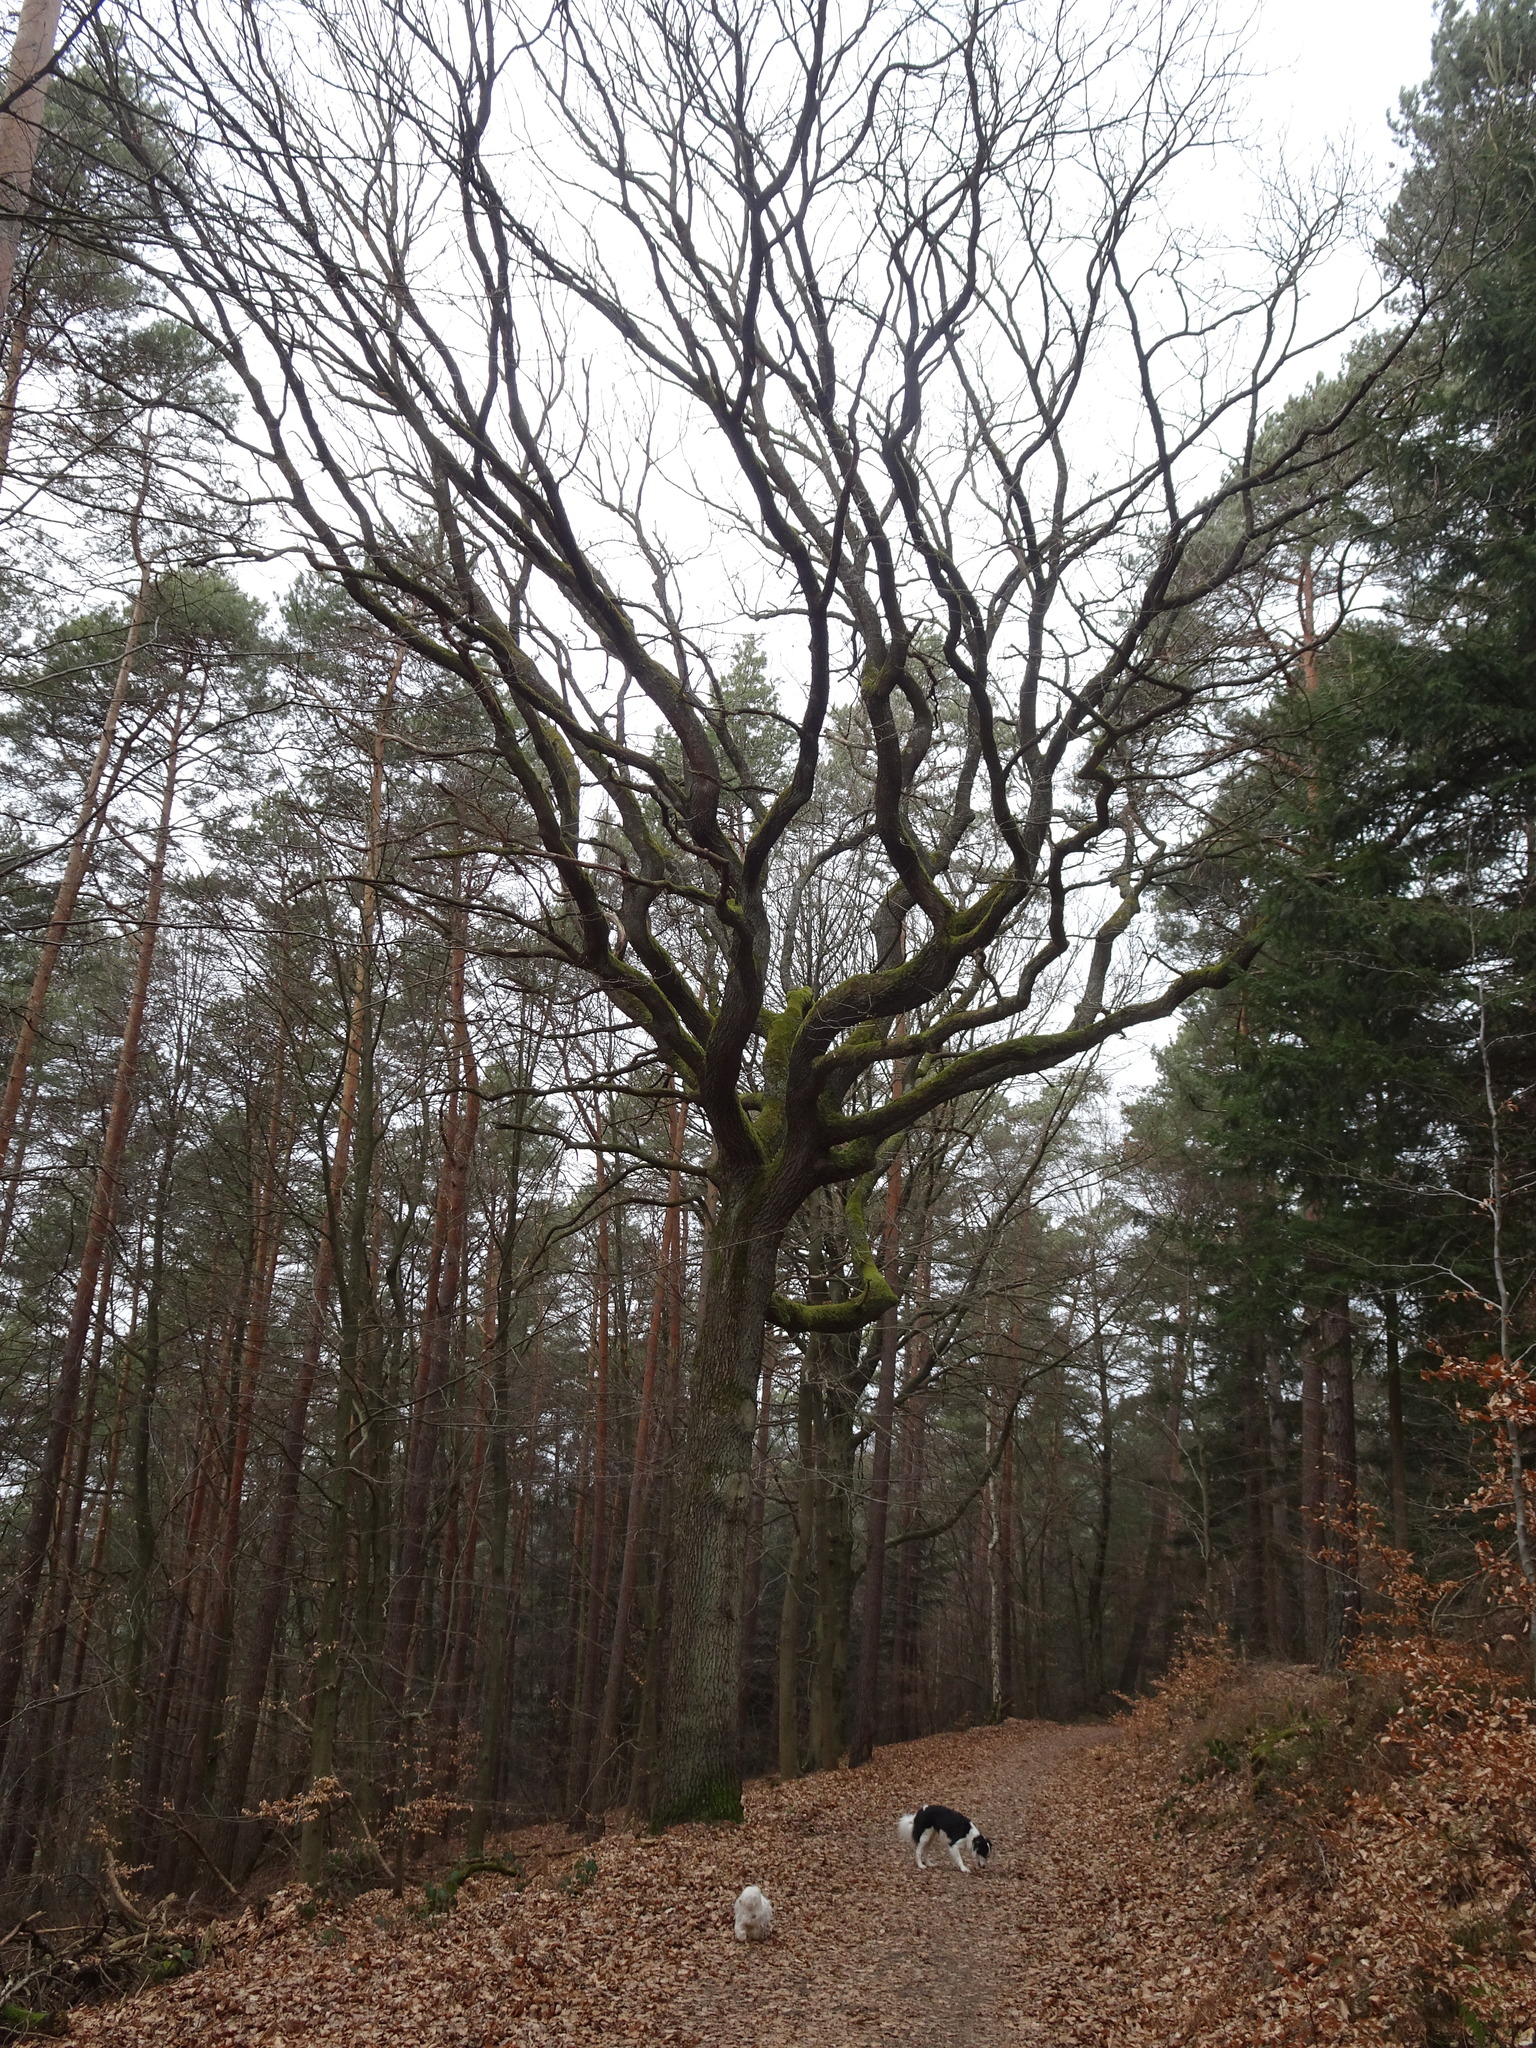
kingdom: Plantae
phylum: Tracheophyta
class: Magnoliopsida
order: Fagales
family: Fagaceae
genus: Quercus
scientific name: Quercus petraea
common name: Sessile oak
